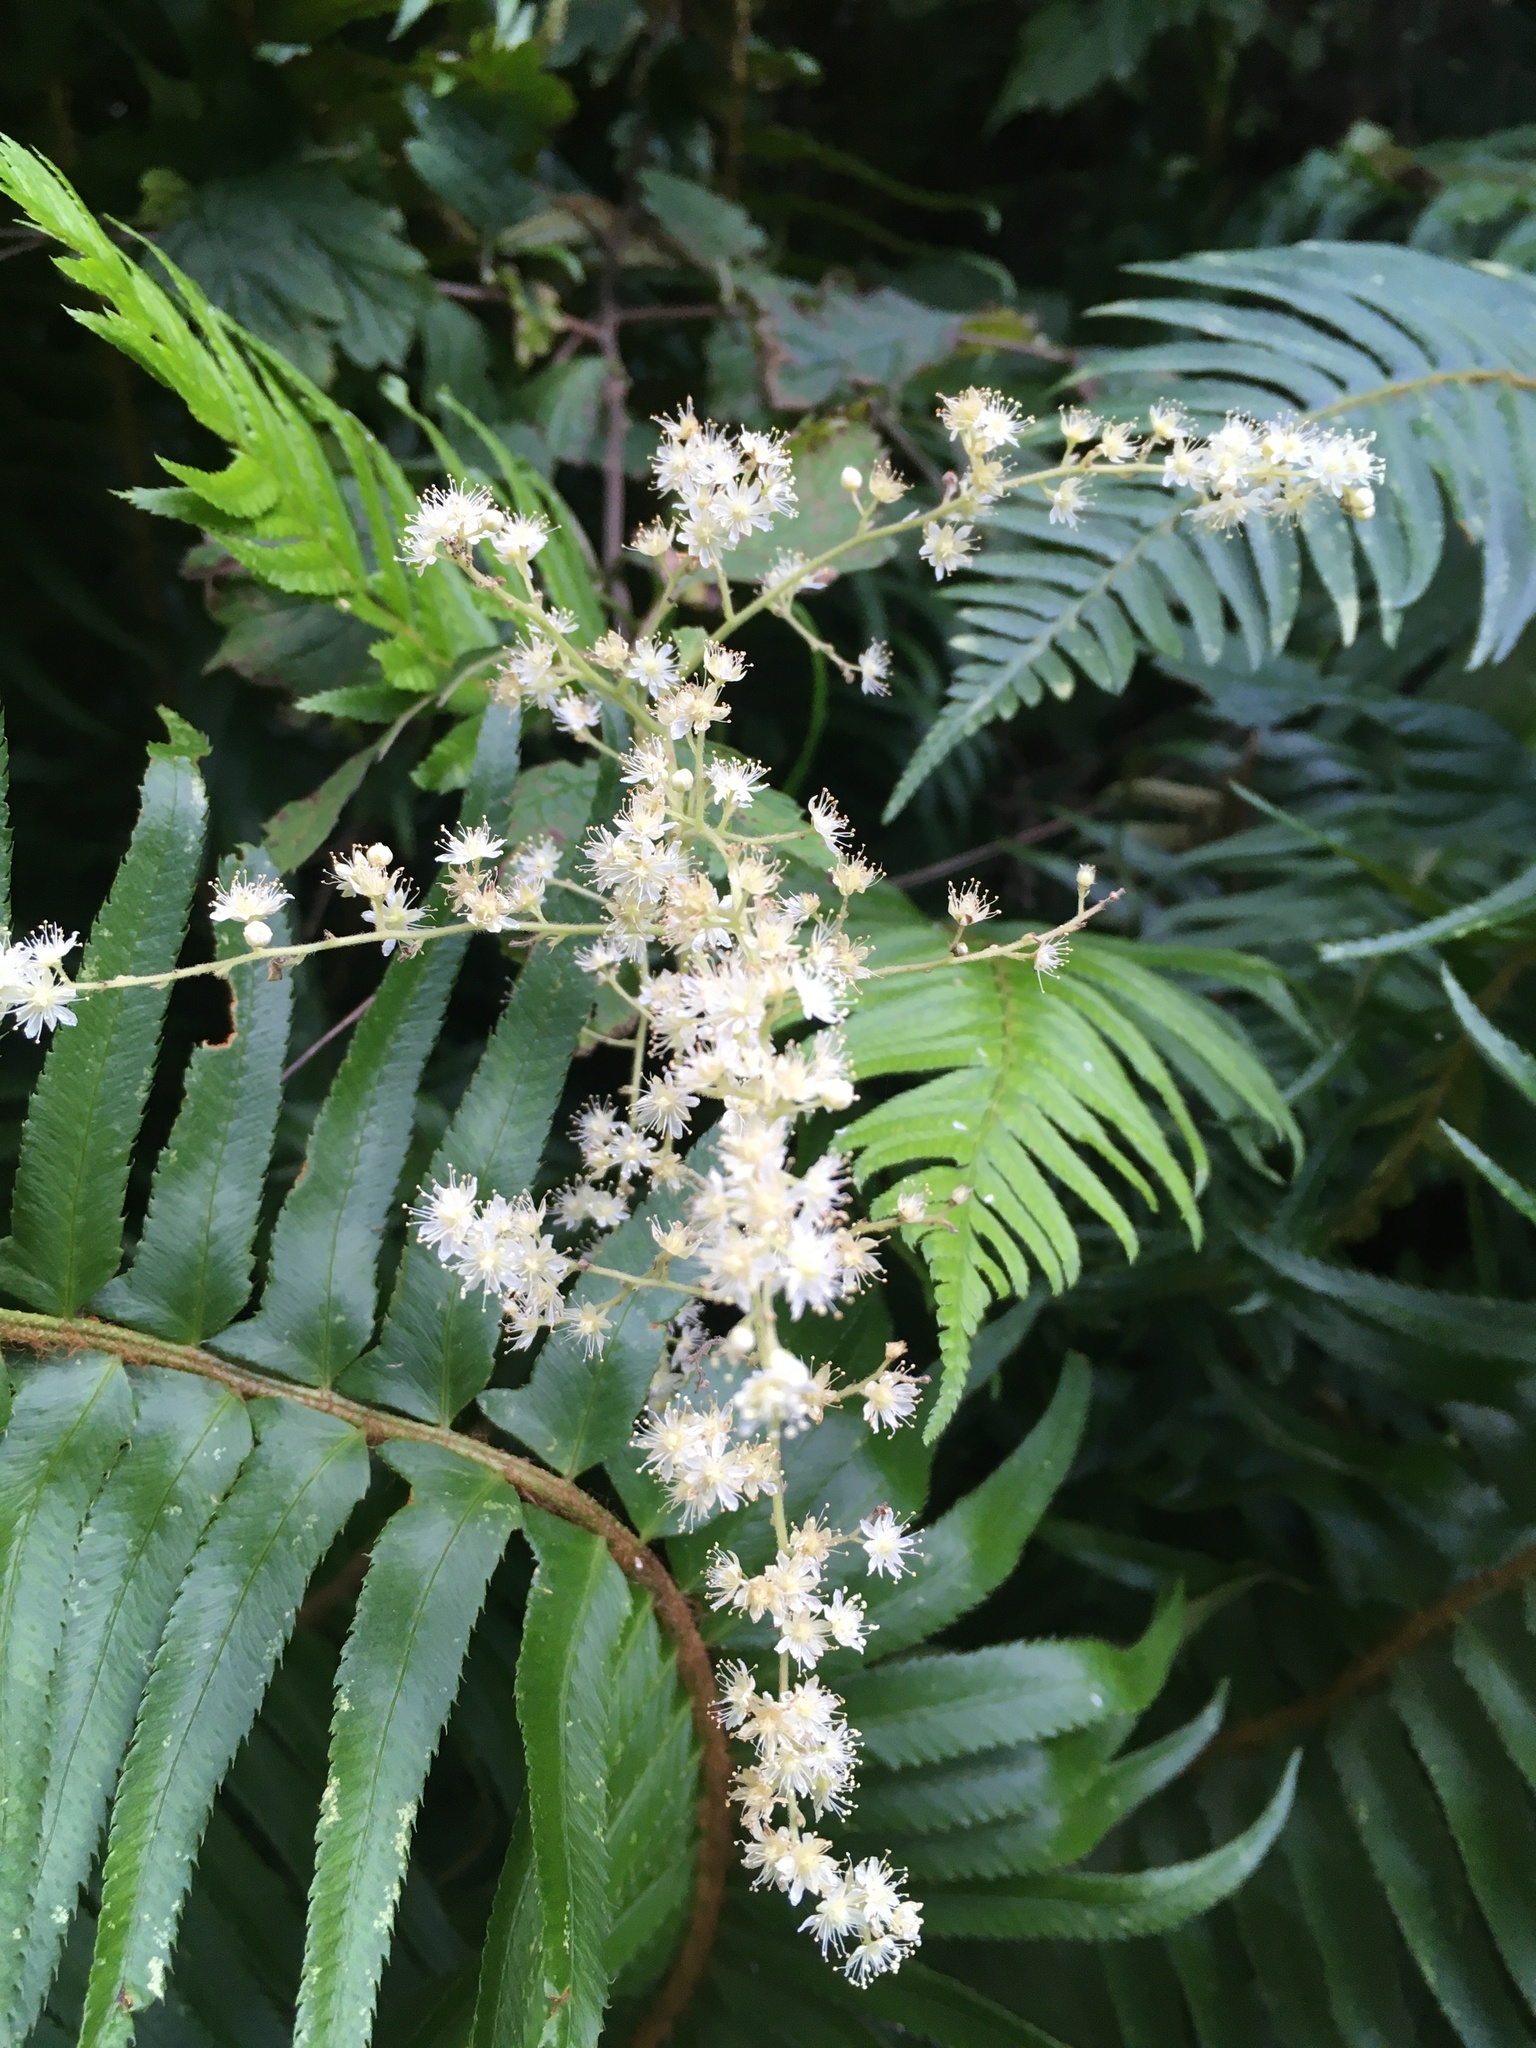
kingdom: Plantae
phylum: Tracheophyta
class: Magnoliopsida
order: Rosales
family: Rosaceae
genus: Holodiscus
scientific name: Holodiscus discolor
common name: Oceanspray
